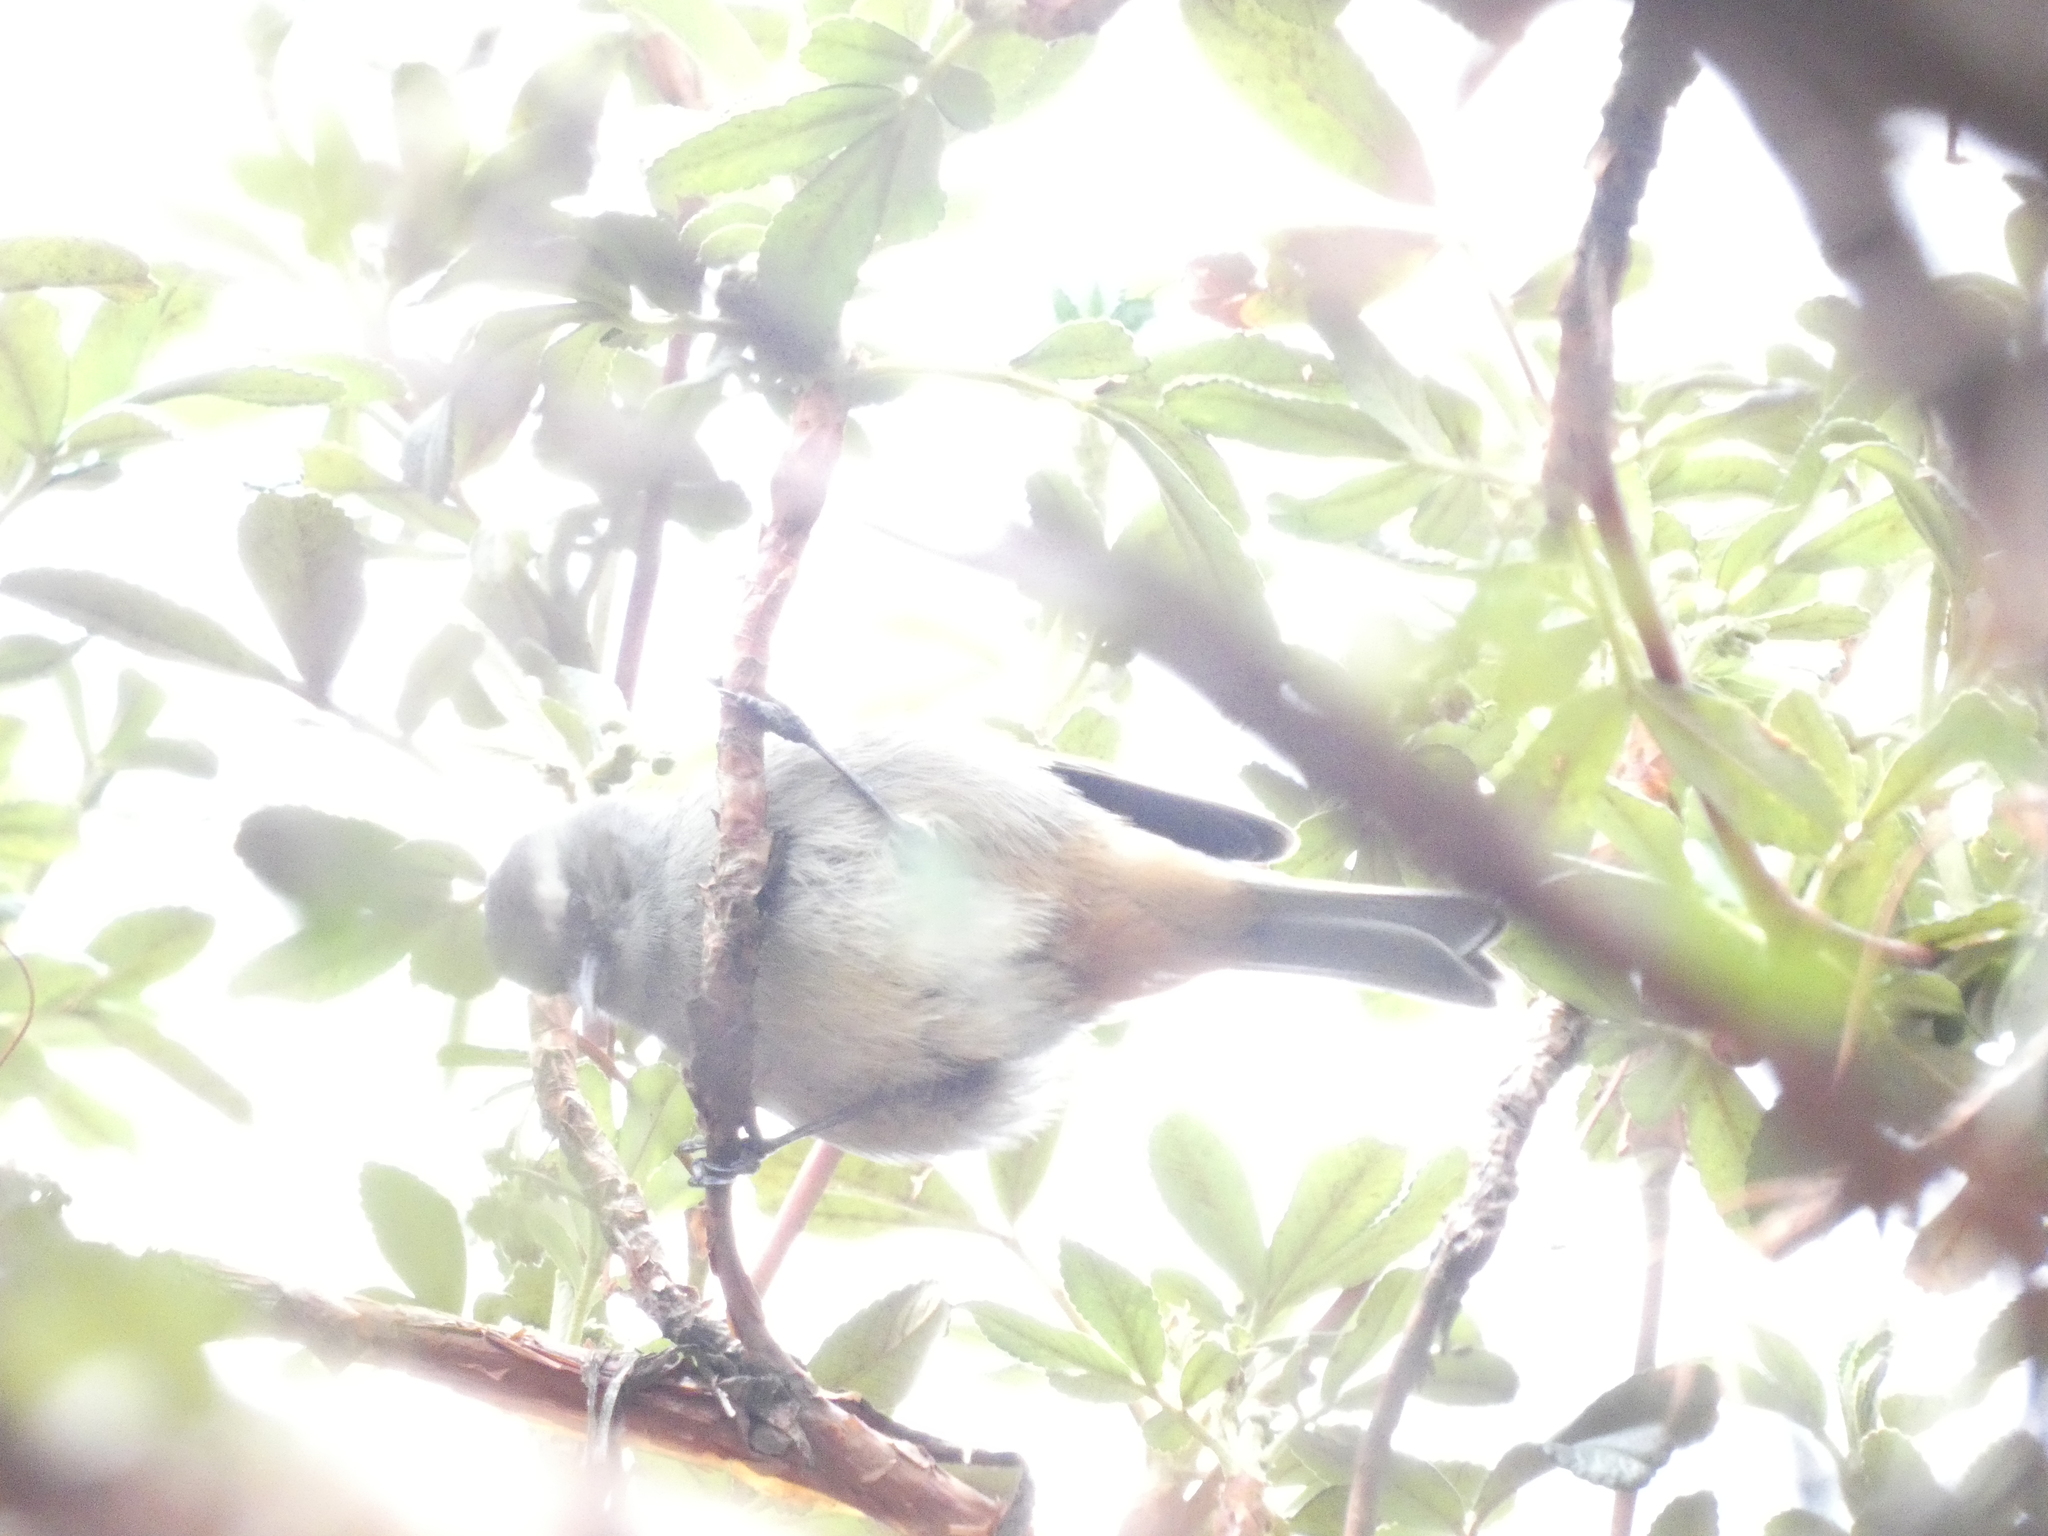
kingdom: Animalia
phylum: Chordata
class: Aves
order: Passeriformes
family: Thraupidae
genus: Conirostrum
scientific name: Conirostrum cinereum
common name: Cinereous conebill
